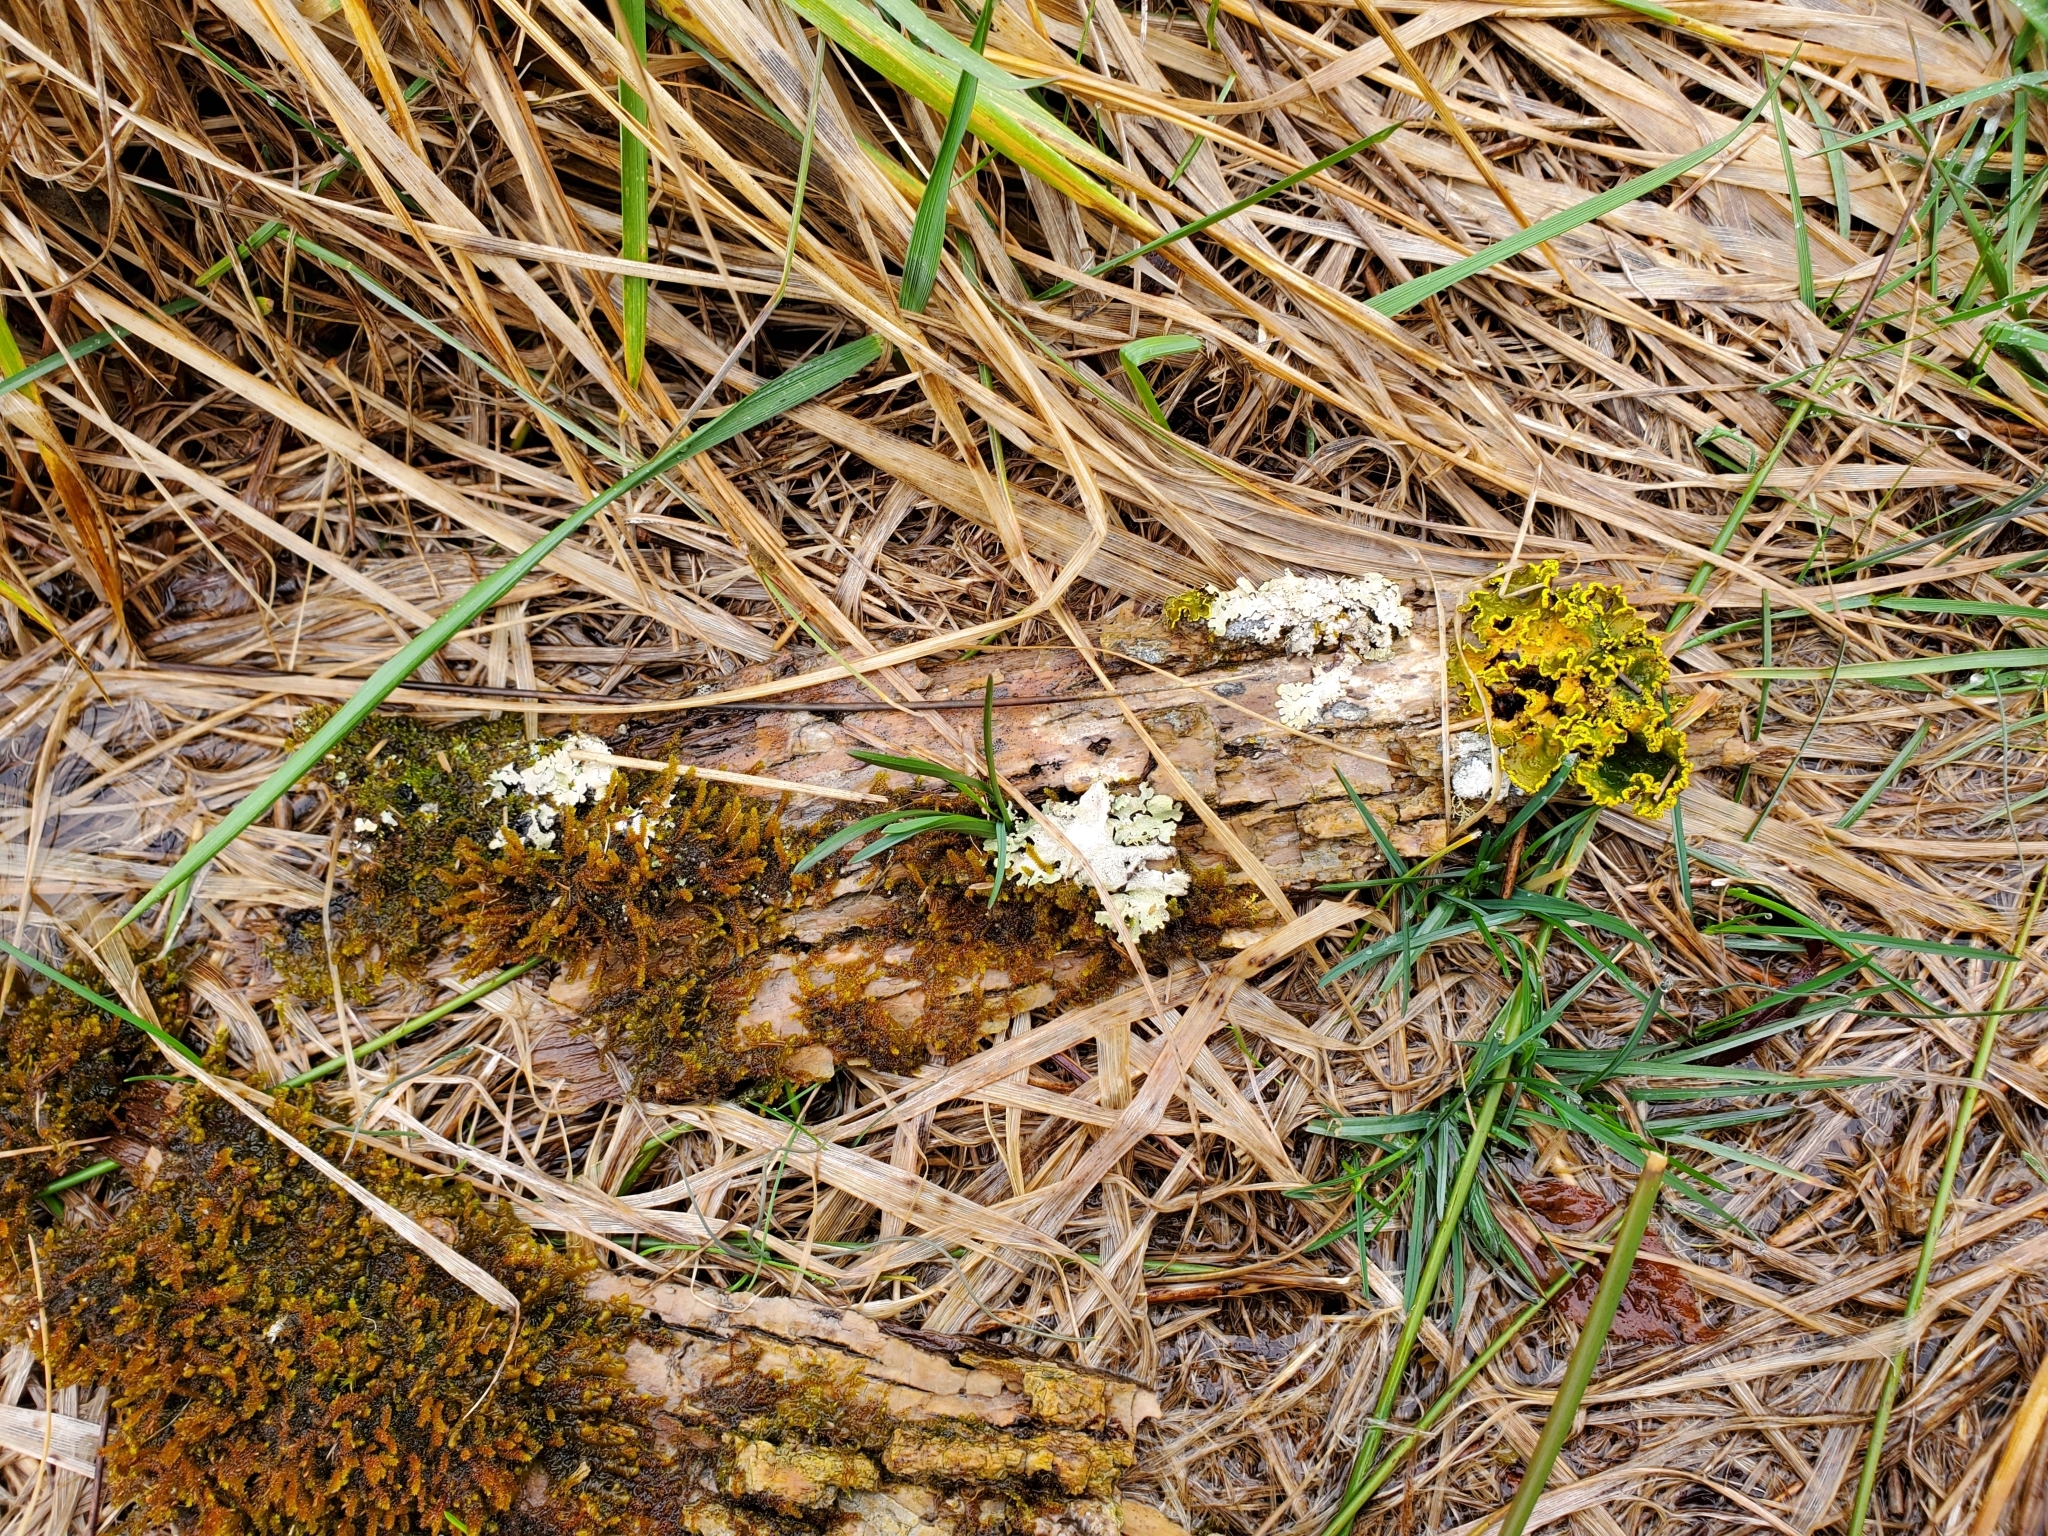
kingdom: Fungi
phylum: Ascomycota
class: Lecanoromycetes
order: Peltigerales
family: Lobariaceae
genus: Pseudocyphellaria
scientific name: Pseudocyphellaria aurata
